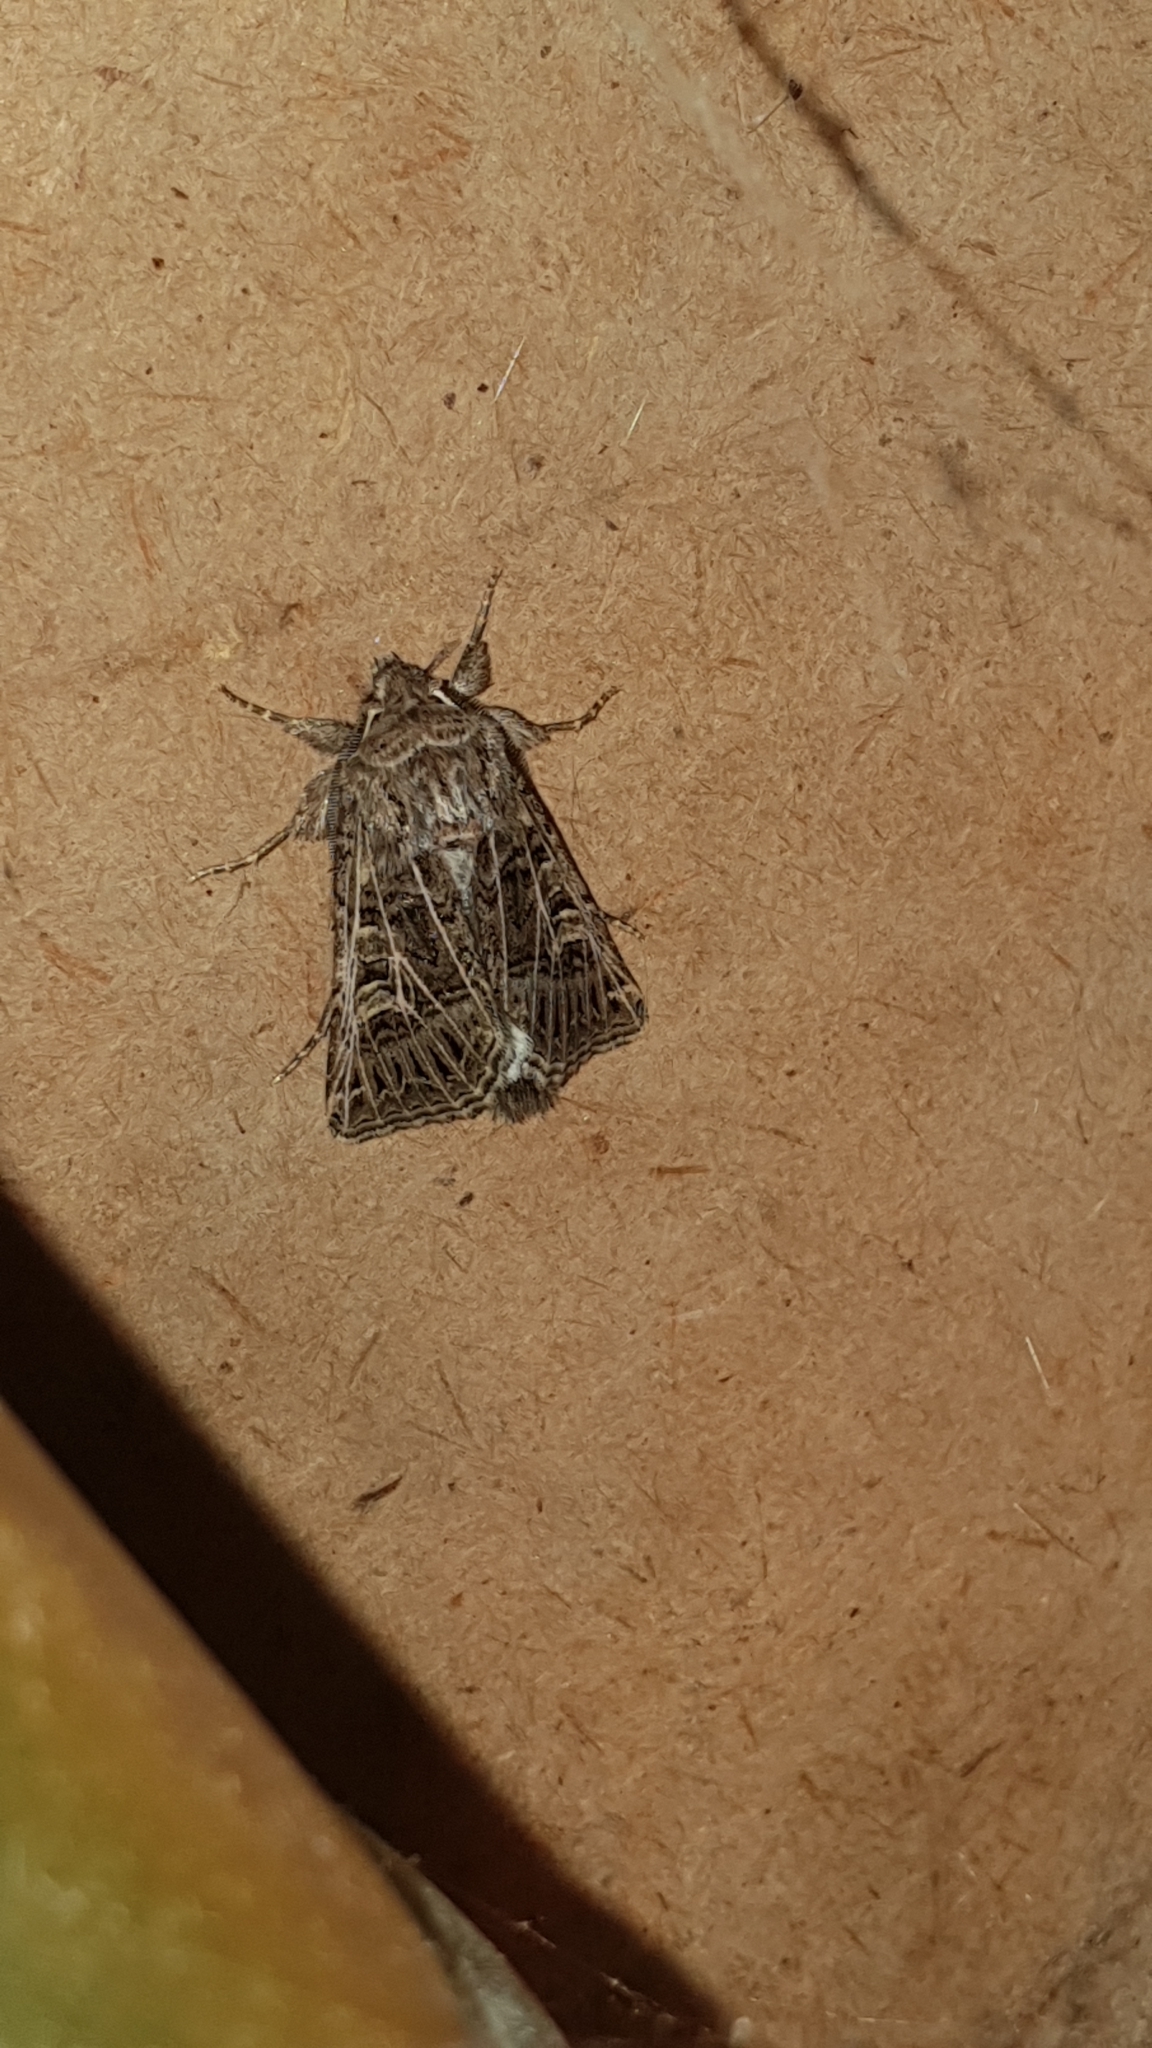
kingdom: Animalia
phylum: Arthropoda
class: Insecta
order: Lepidoptera
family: Noctuidae
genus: Tholera
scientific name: Tholera decimalis
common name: Feathered gothic
